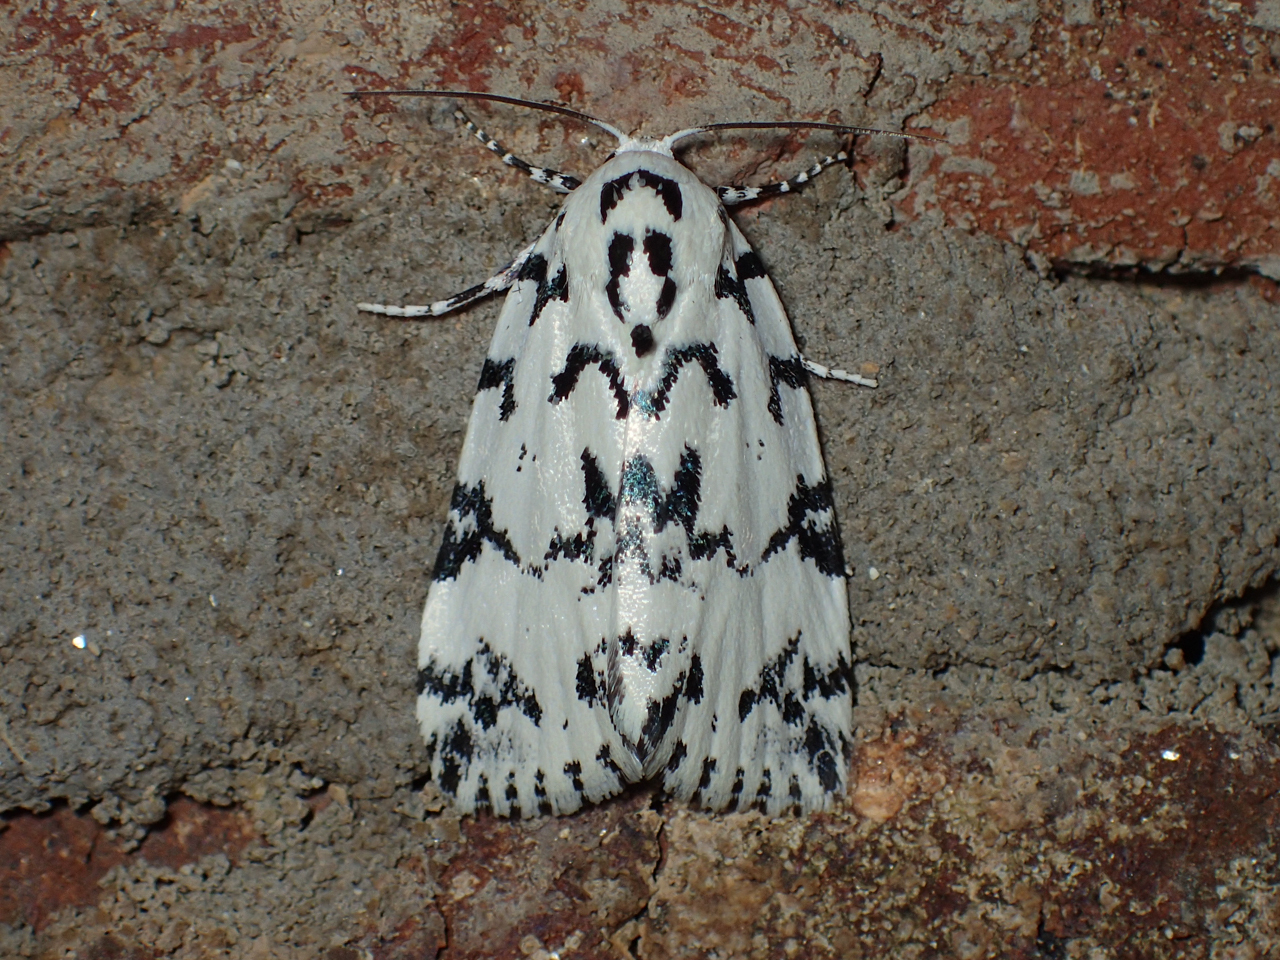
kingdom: Animalia
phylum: Arthropoda
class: Insecta
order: Lepidoptera
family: Noctuidae
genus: Polygrammate
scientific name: Polygrammate hebraeicum
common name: Hebrew moth
